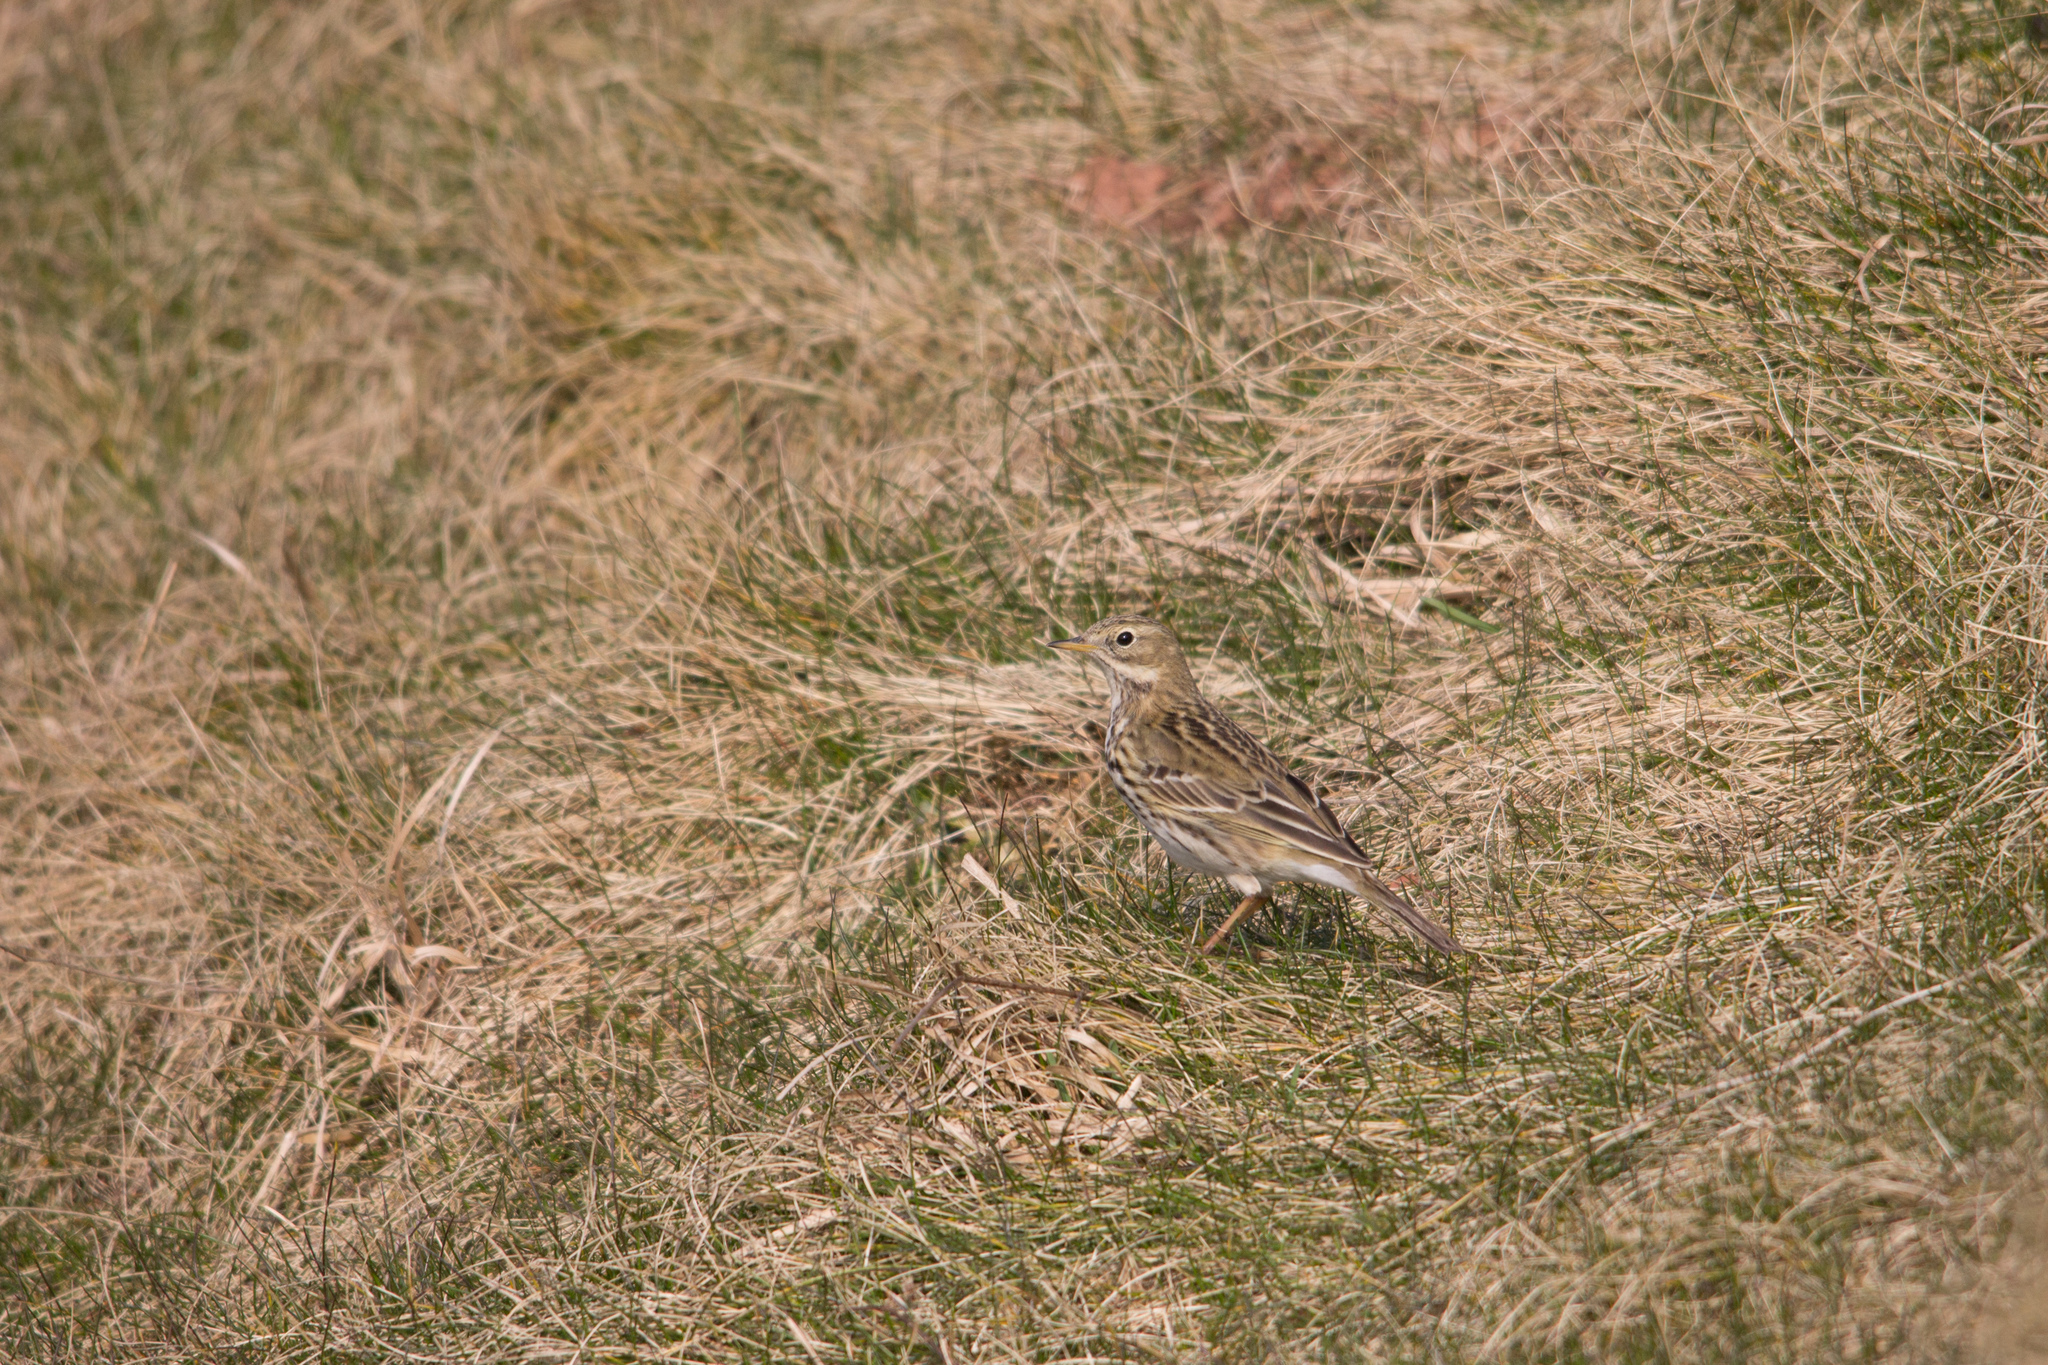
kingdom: Animalia
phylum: Chordata
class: Aves
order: Passeriformes
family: Motacillidae
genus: Anthus
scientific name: Anthus pratensis
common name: Meadow pipit
